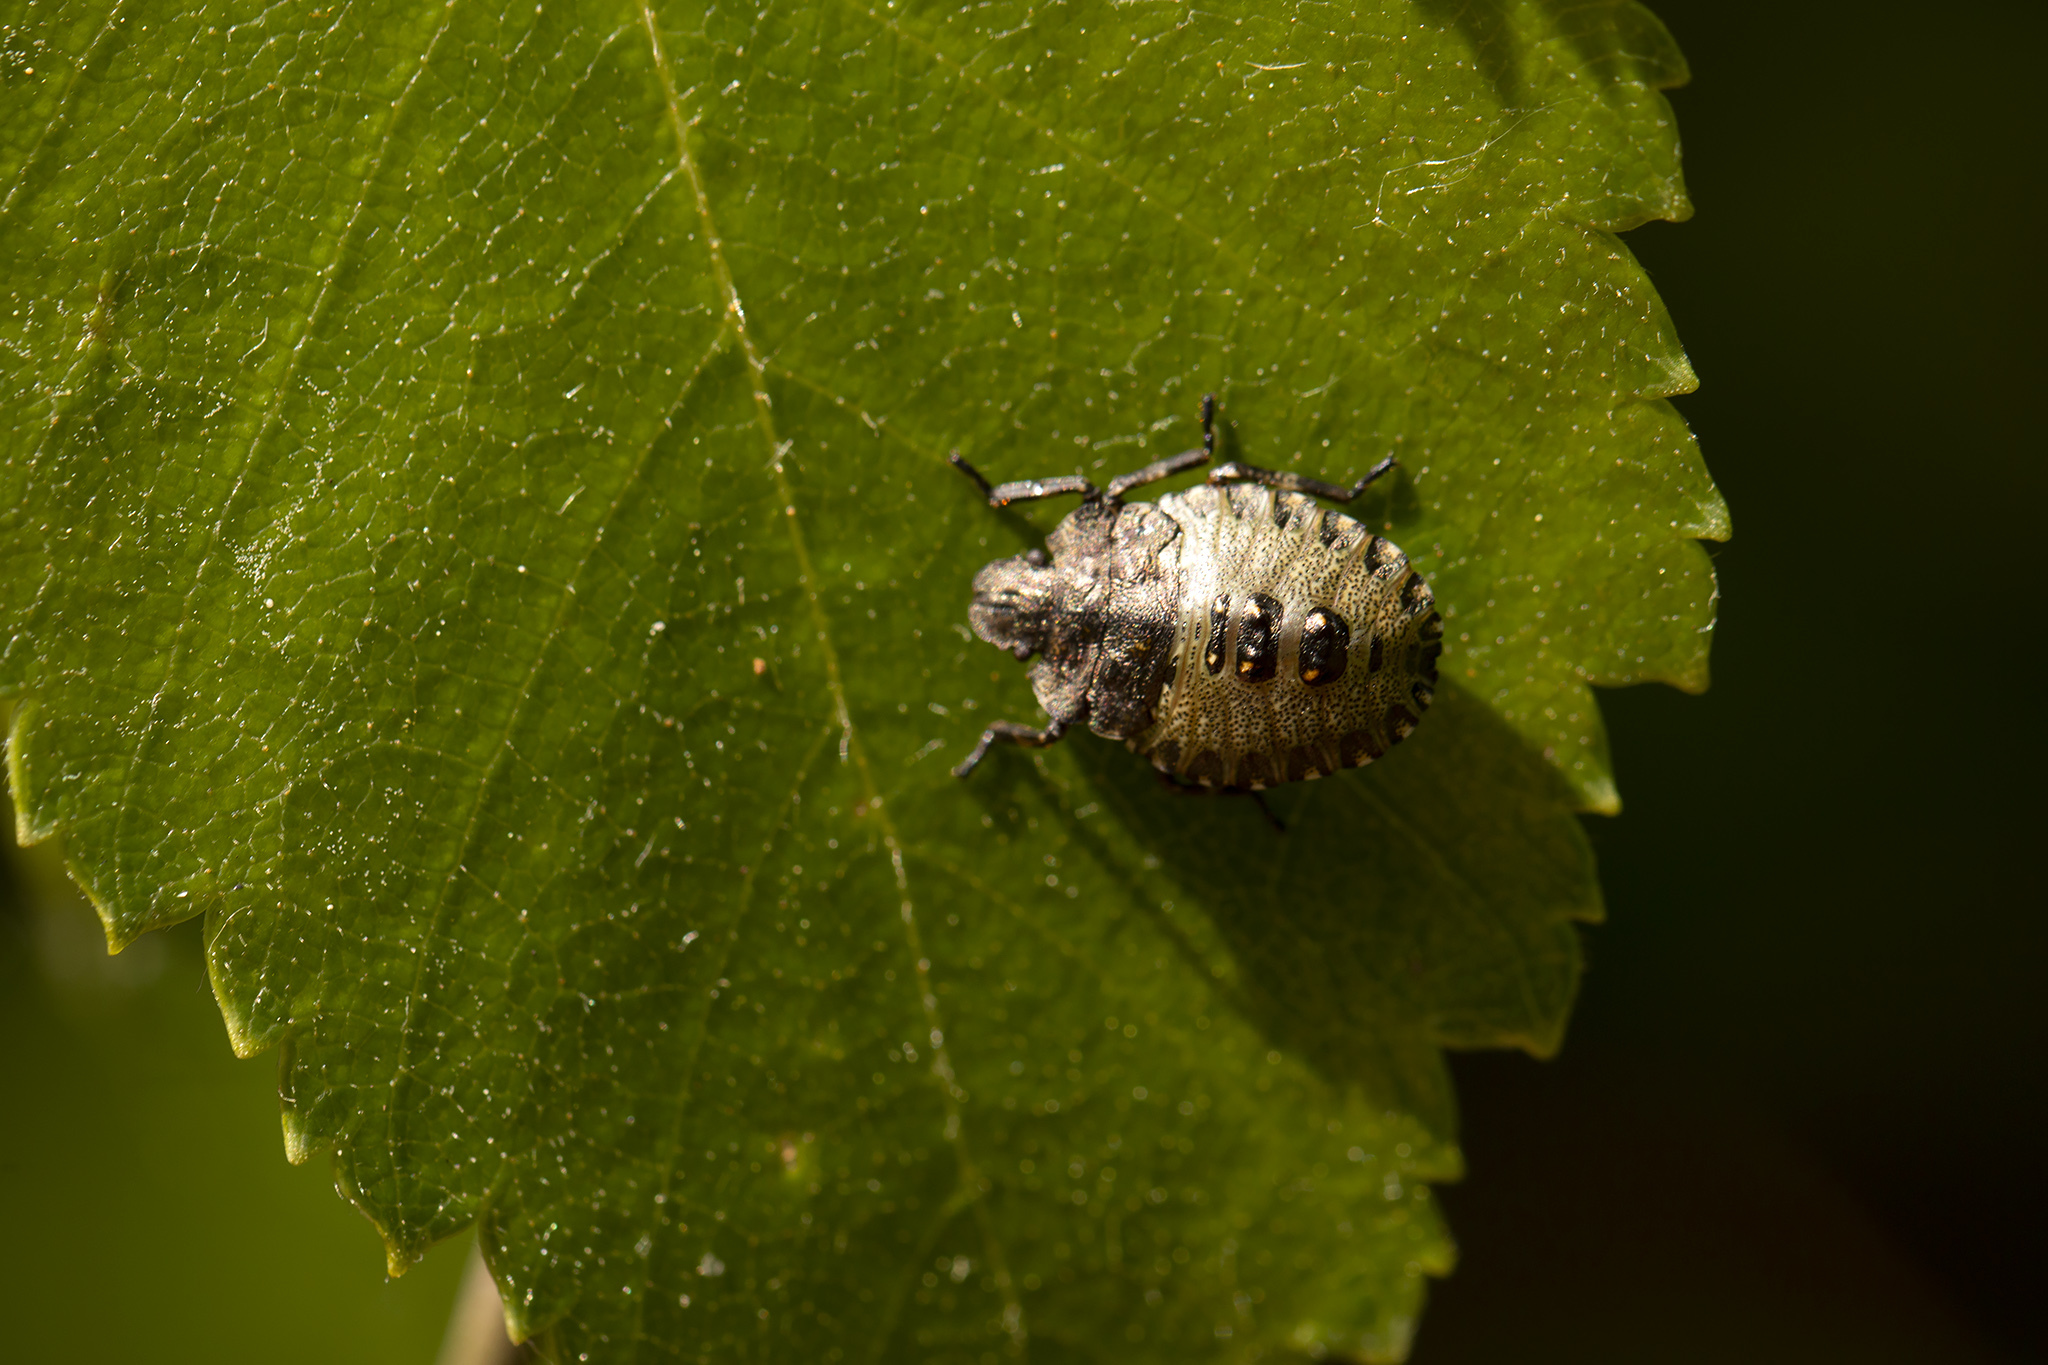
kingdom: Animalia
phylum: Arthropoda
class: Insecta
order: Hemiptera
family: Pentatomidae
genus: Pentatoma
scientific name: Pentatoma rufipes
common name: Forest bug
